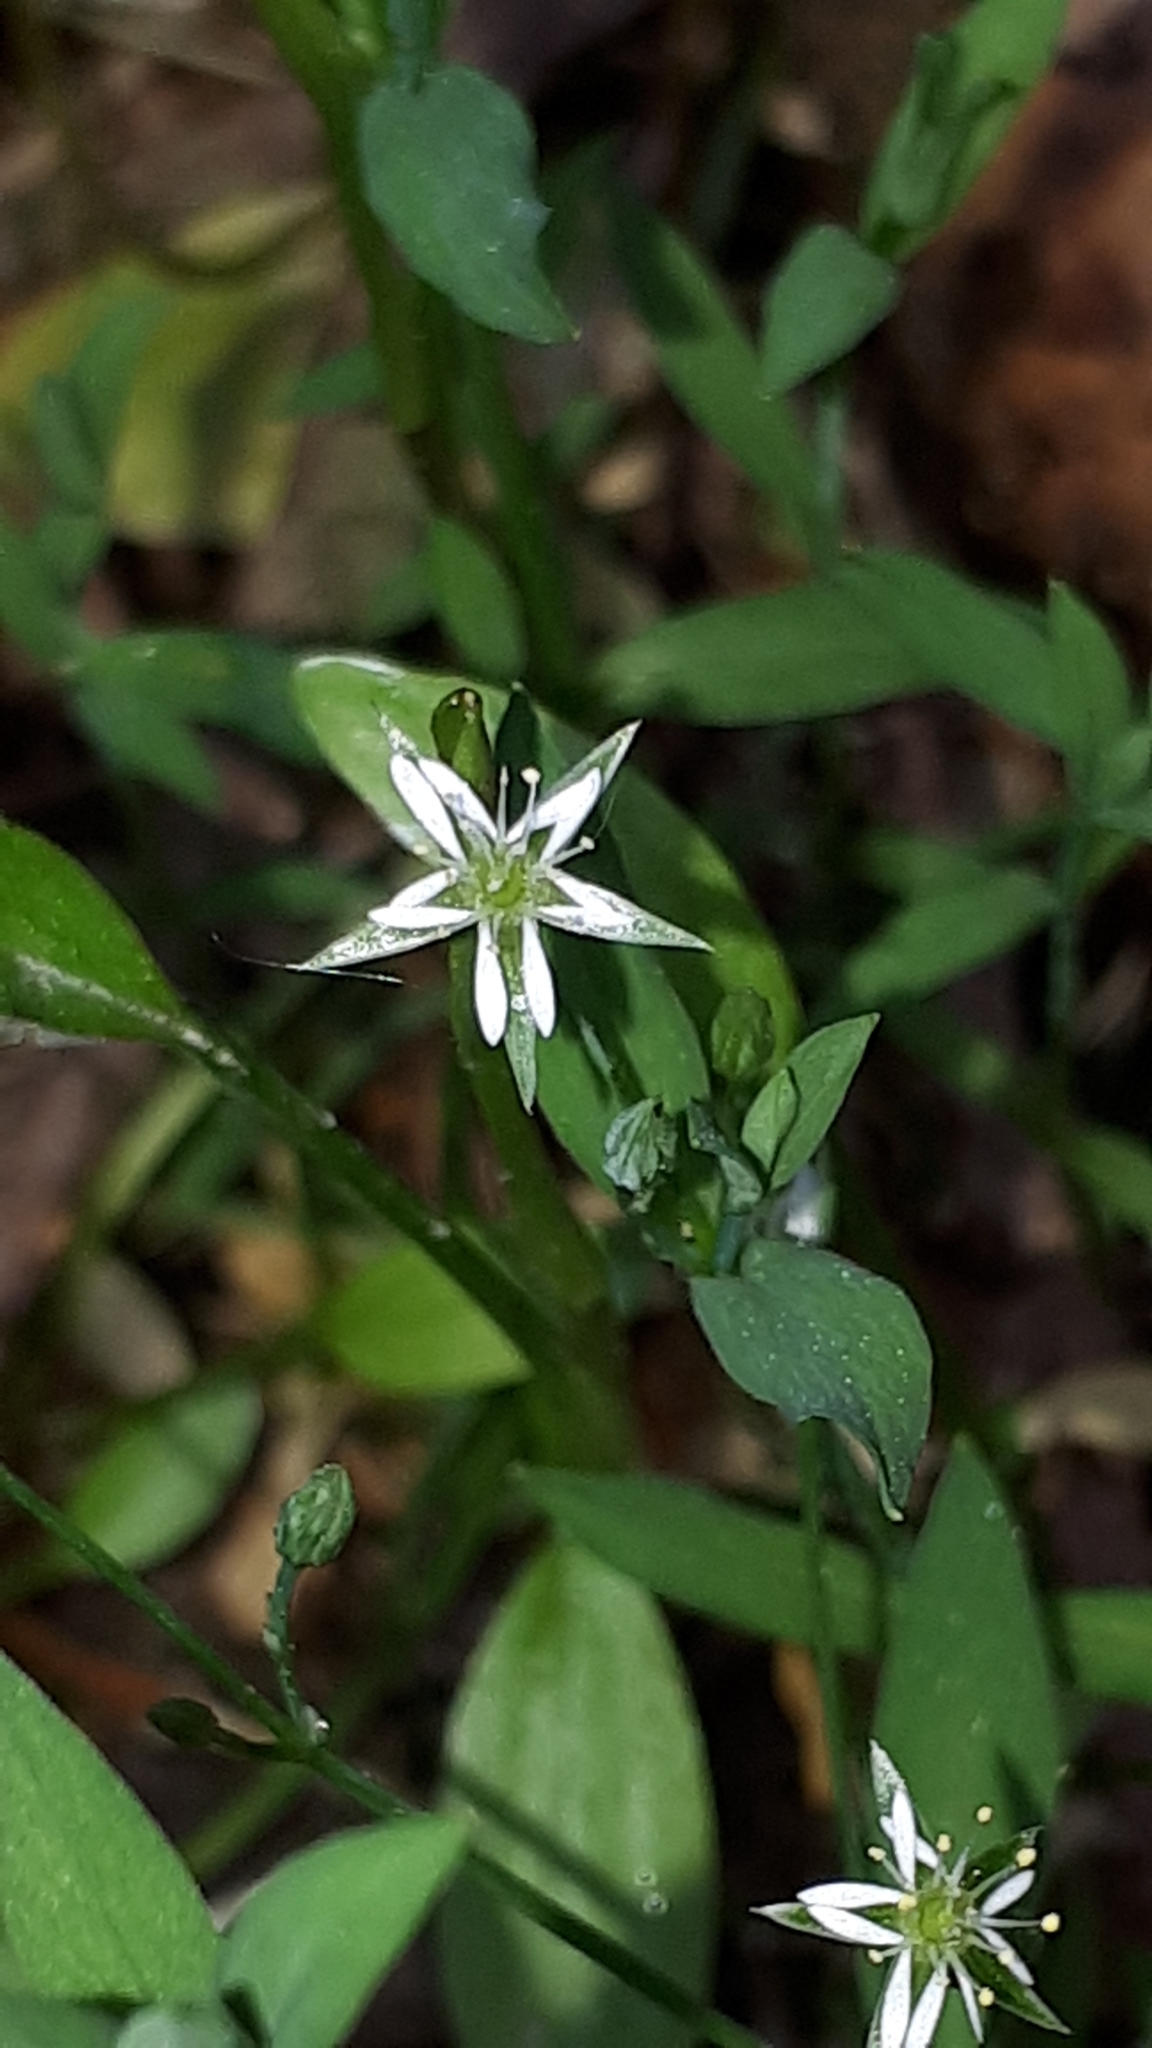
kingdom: Plantae
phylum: Tracheophyta
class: Magnoliopsida
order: Caryophyllales
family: Caryophyllaceae
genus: Stellaria
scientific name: Stellaria alsine
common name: Bog stitchwort
